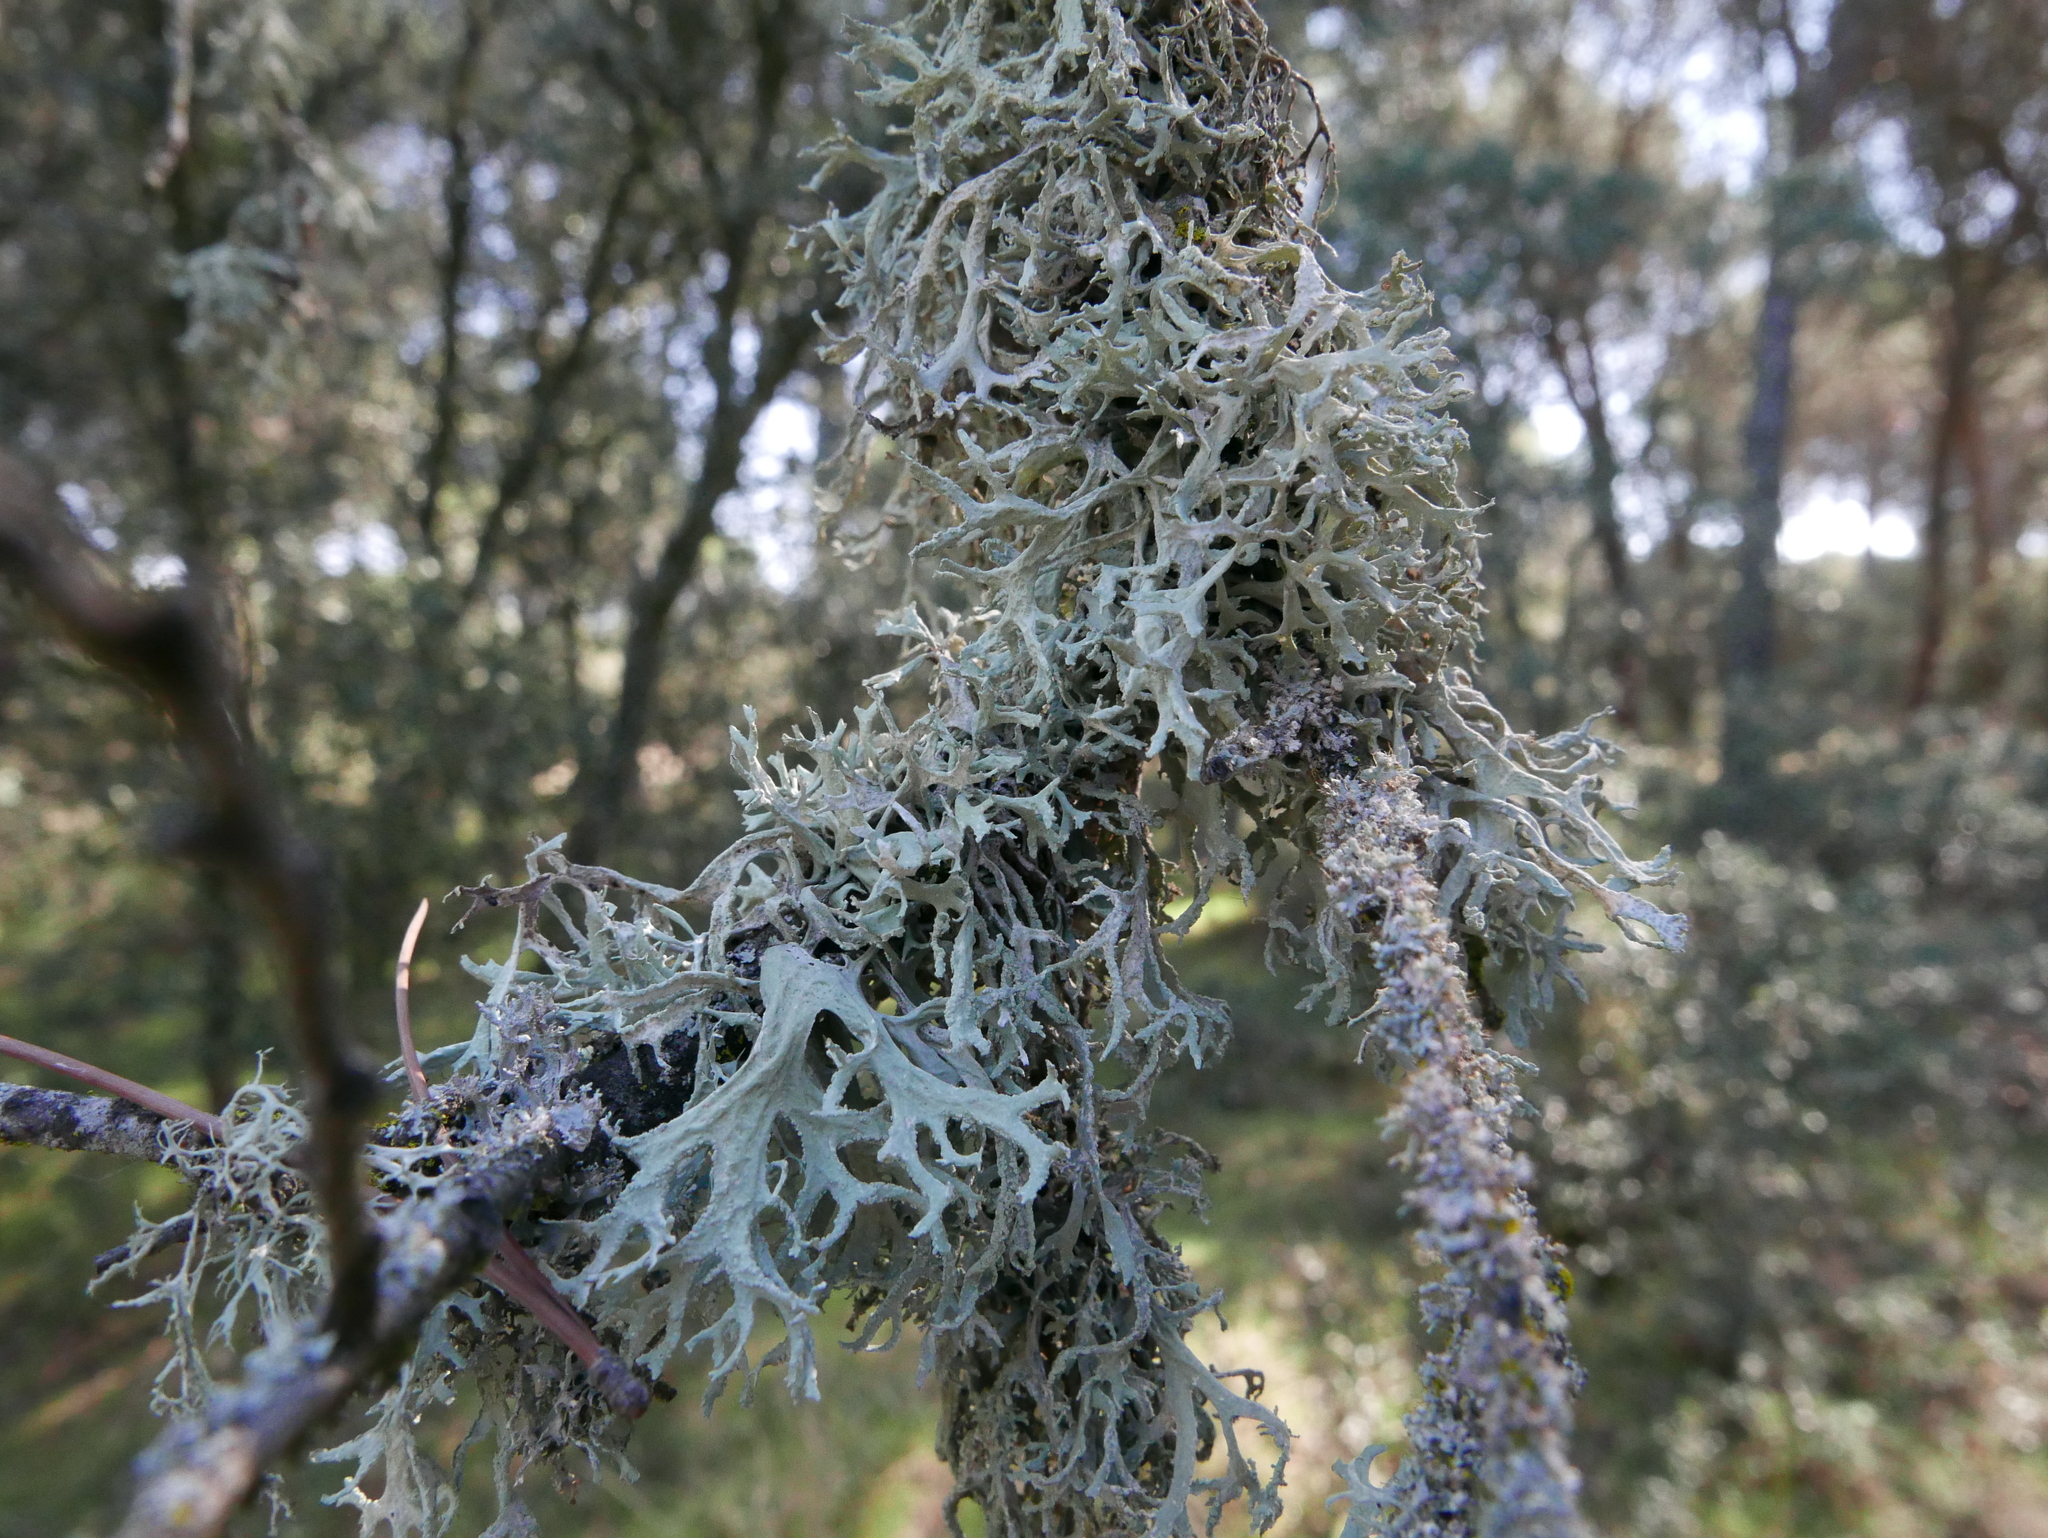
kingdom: Fungi
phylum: Ascomycota
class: Lecanoromycetes
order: Lecanorales
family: Parmeliaceae
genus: Evernia
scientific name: Evernia prunastri
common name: Oak moss
